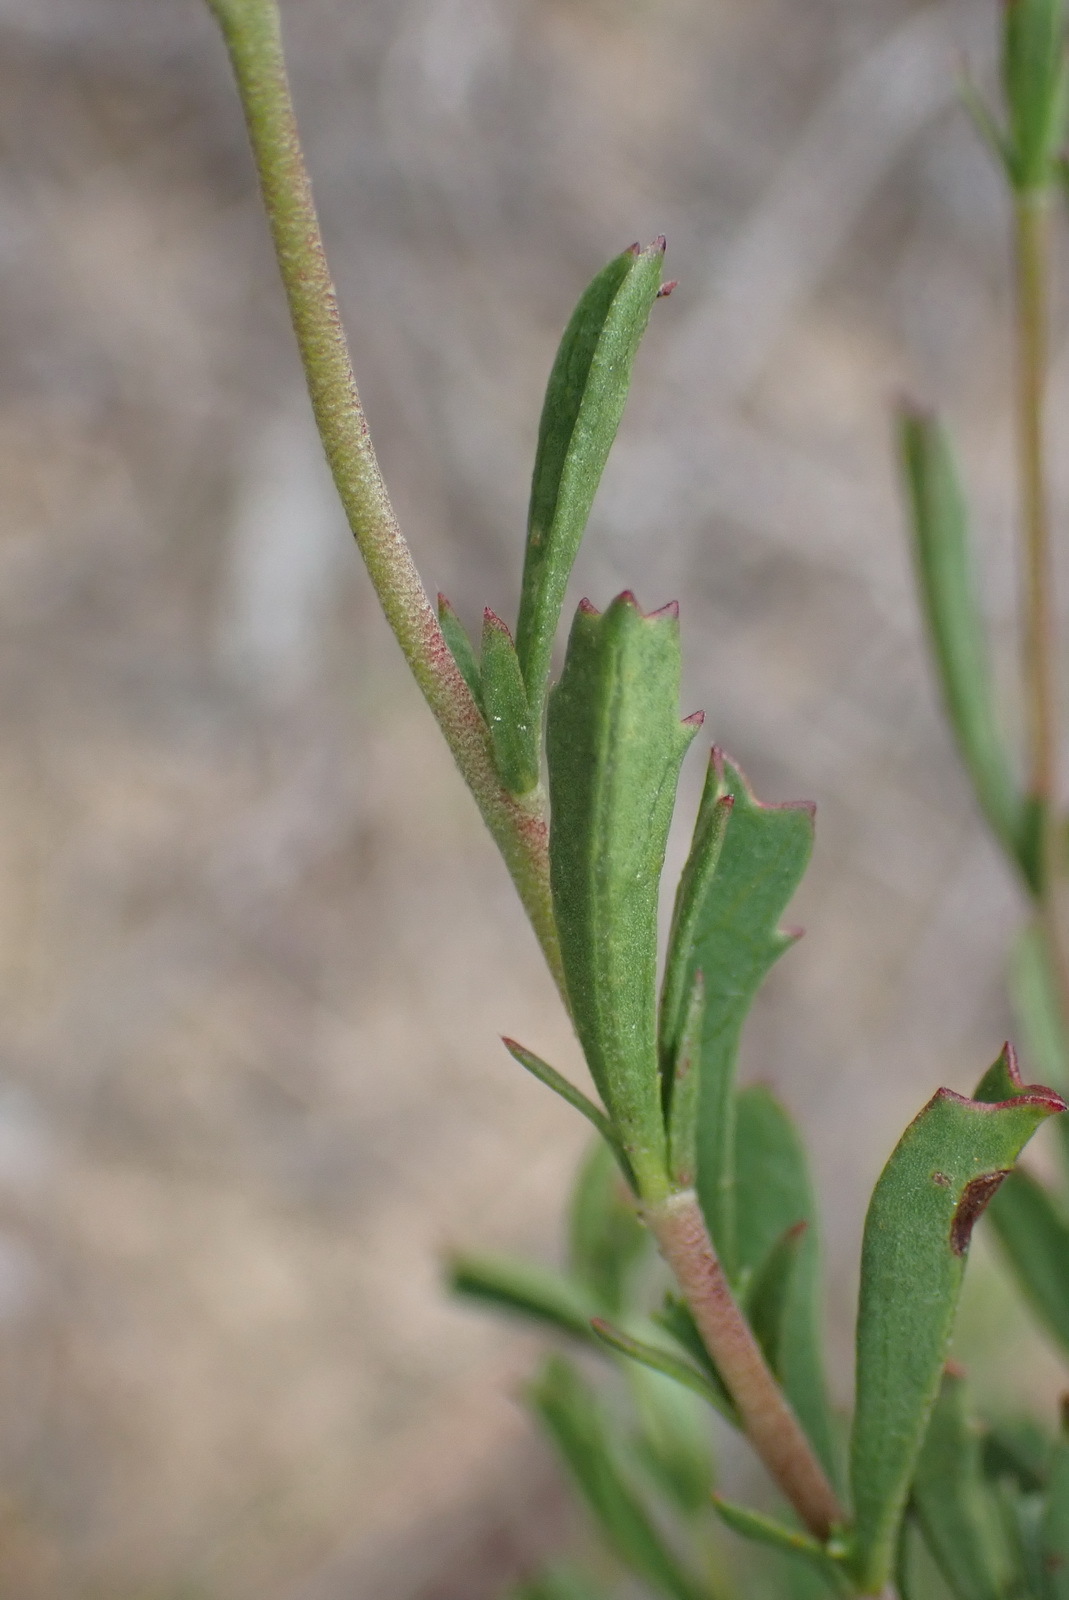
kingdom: Plantae
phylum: Tracheophyta
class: Magnoliopsida
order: Malvales
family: Malvaceae
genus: Hermannia
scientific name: Hermannia flammea
